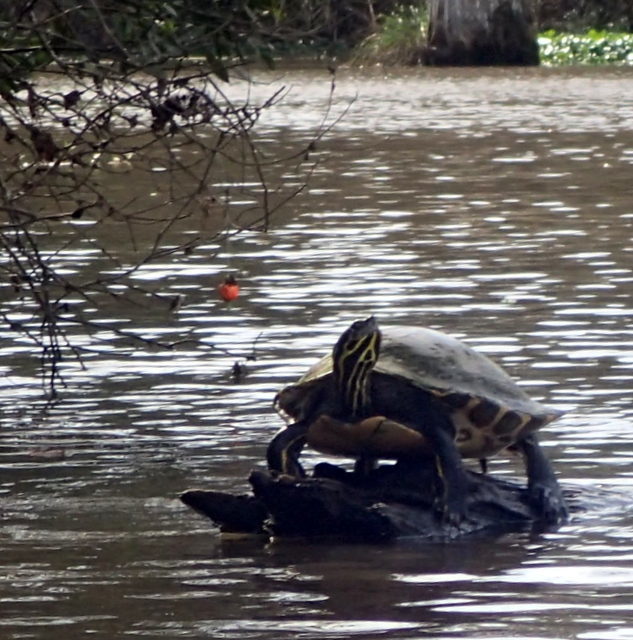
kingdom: Animalia
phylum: Chordata
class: Testudines
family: Emydidae
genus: Pseudemys
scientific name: Pseudemys concinna
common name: Eastern river cooter
